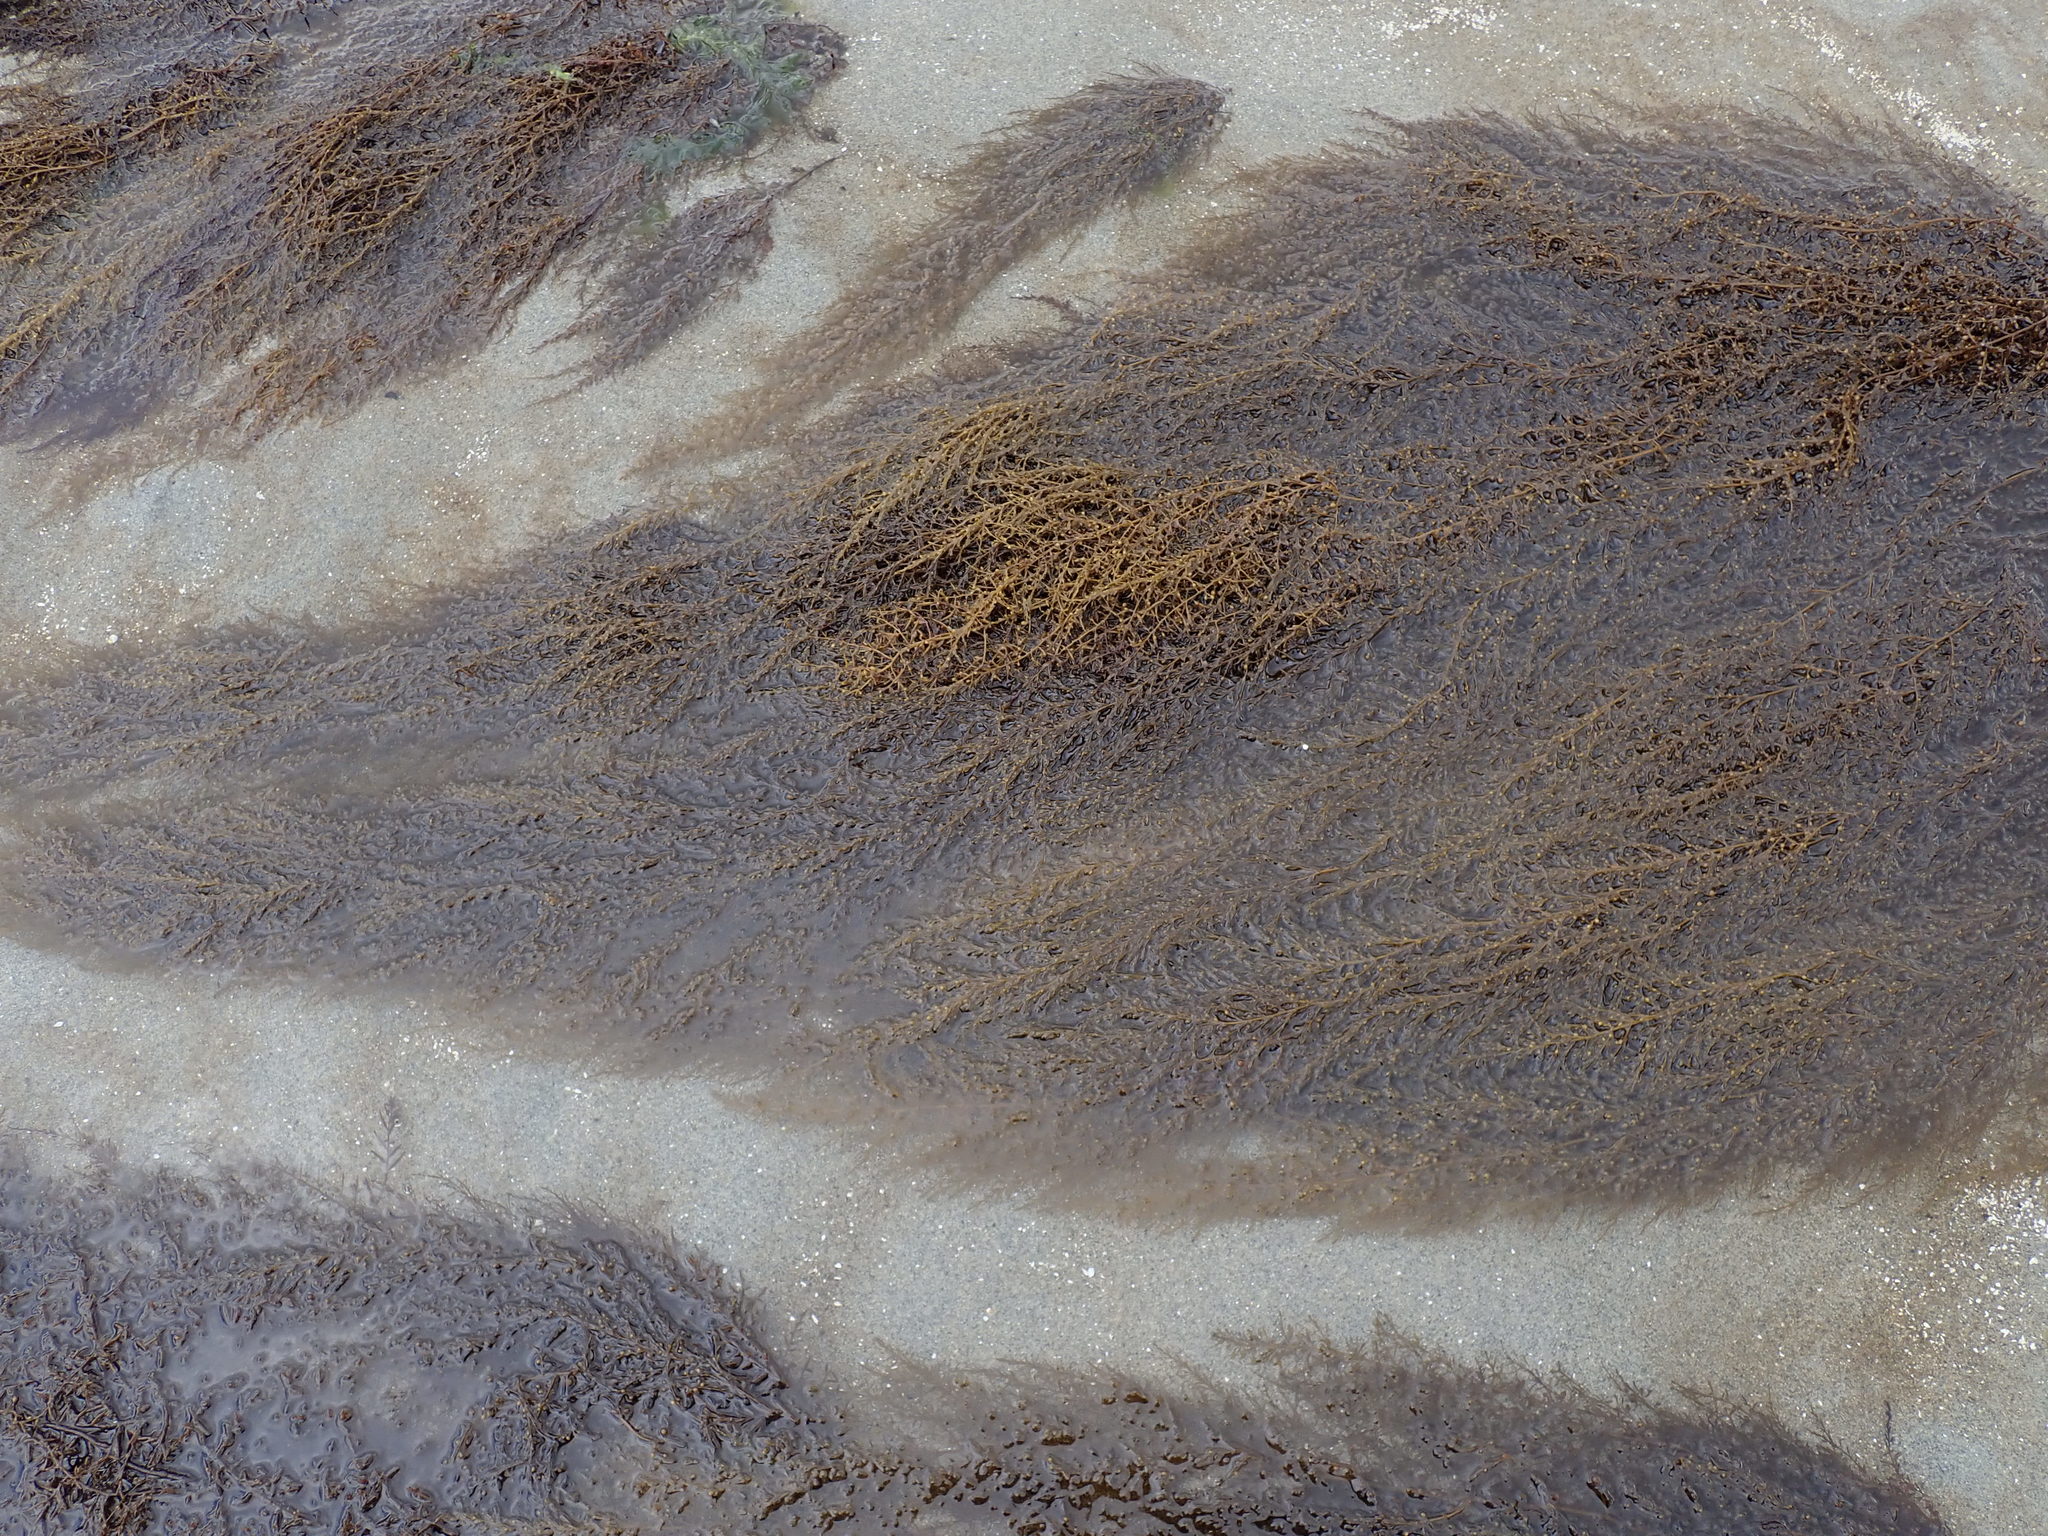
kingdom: Chromista
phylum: Ochrophyta
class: Phaeophyceae
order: Fucales
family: Sargassaceae
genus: Sargassum
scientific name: Sargassum muticum
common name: Japweed
